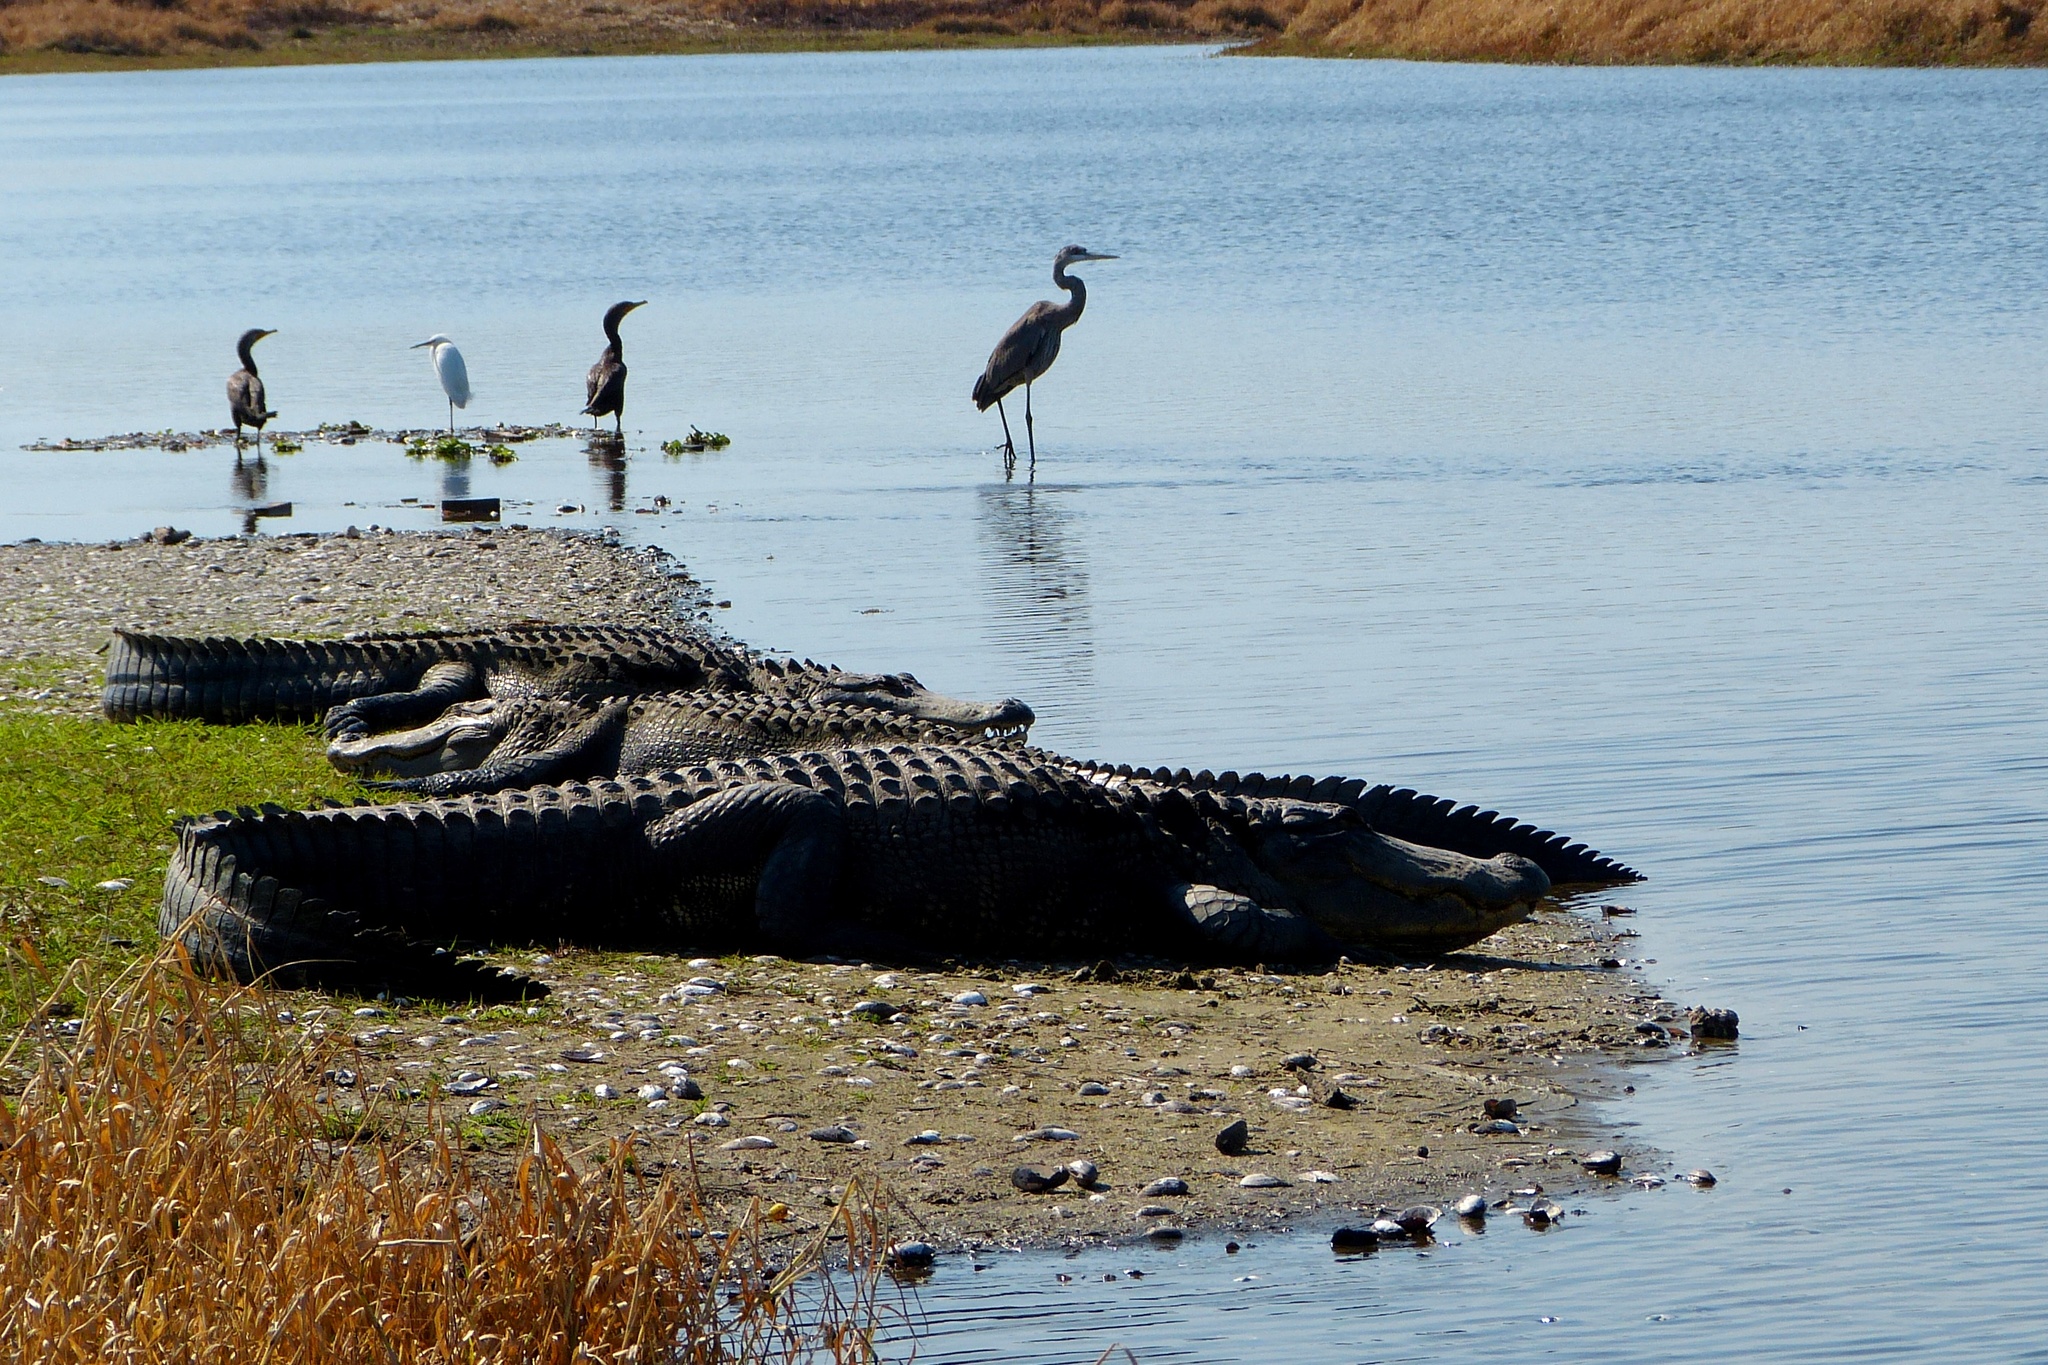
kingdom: Animalia
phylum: Chordata
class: Crocodylia
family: Alligatoridae
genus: Alligator
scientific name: Alligator mississippiensis
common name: American alligator
